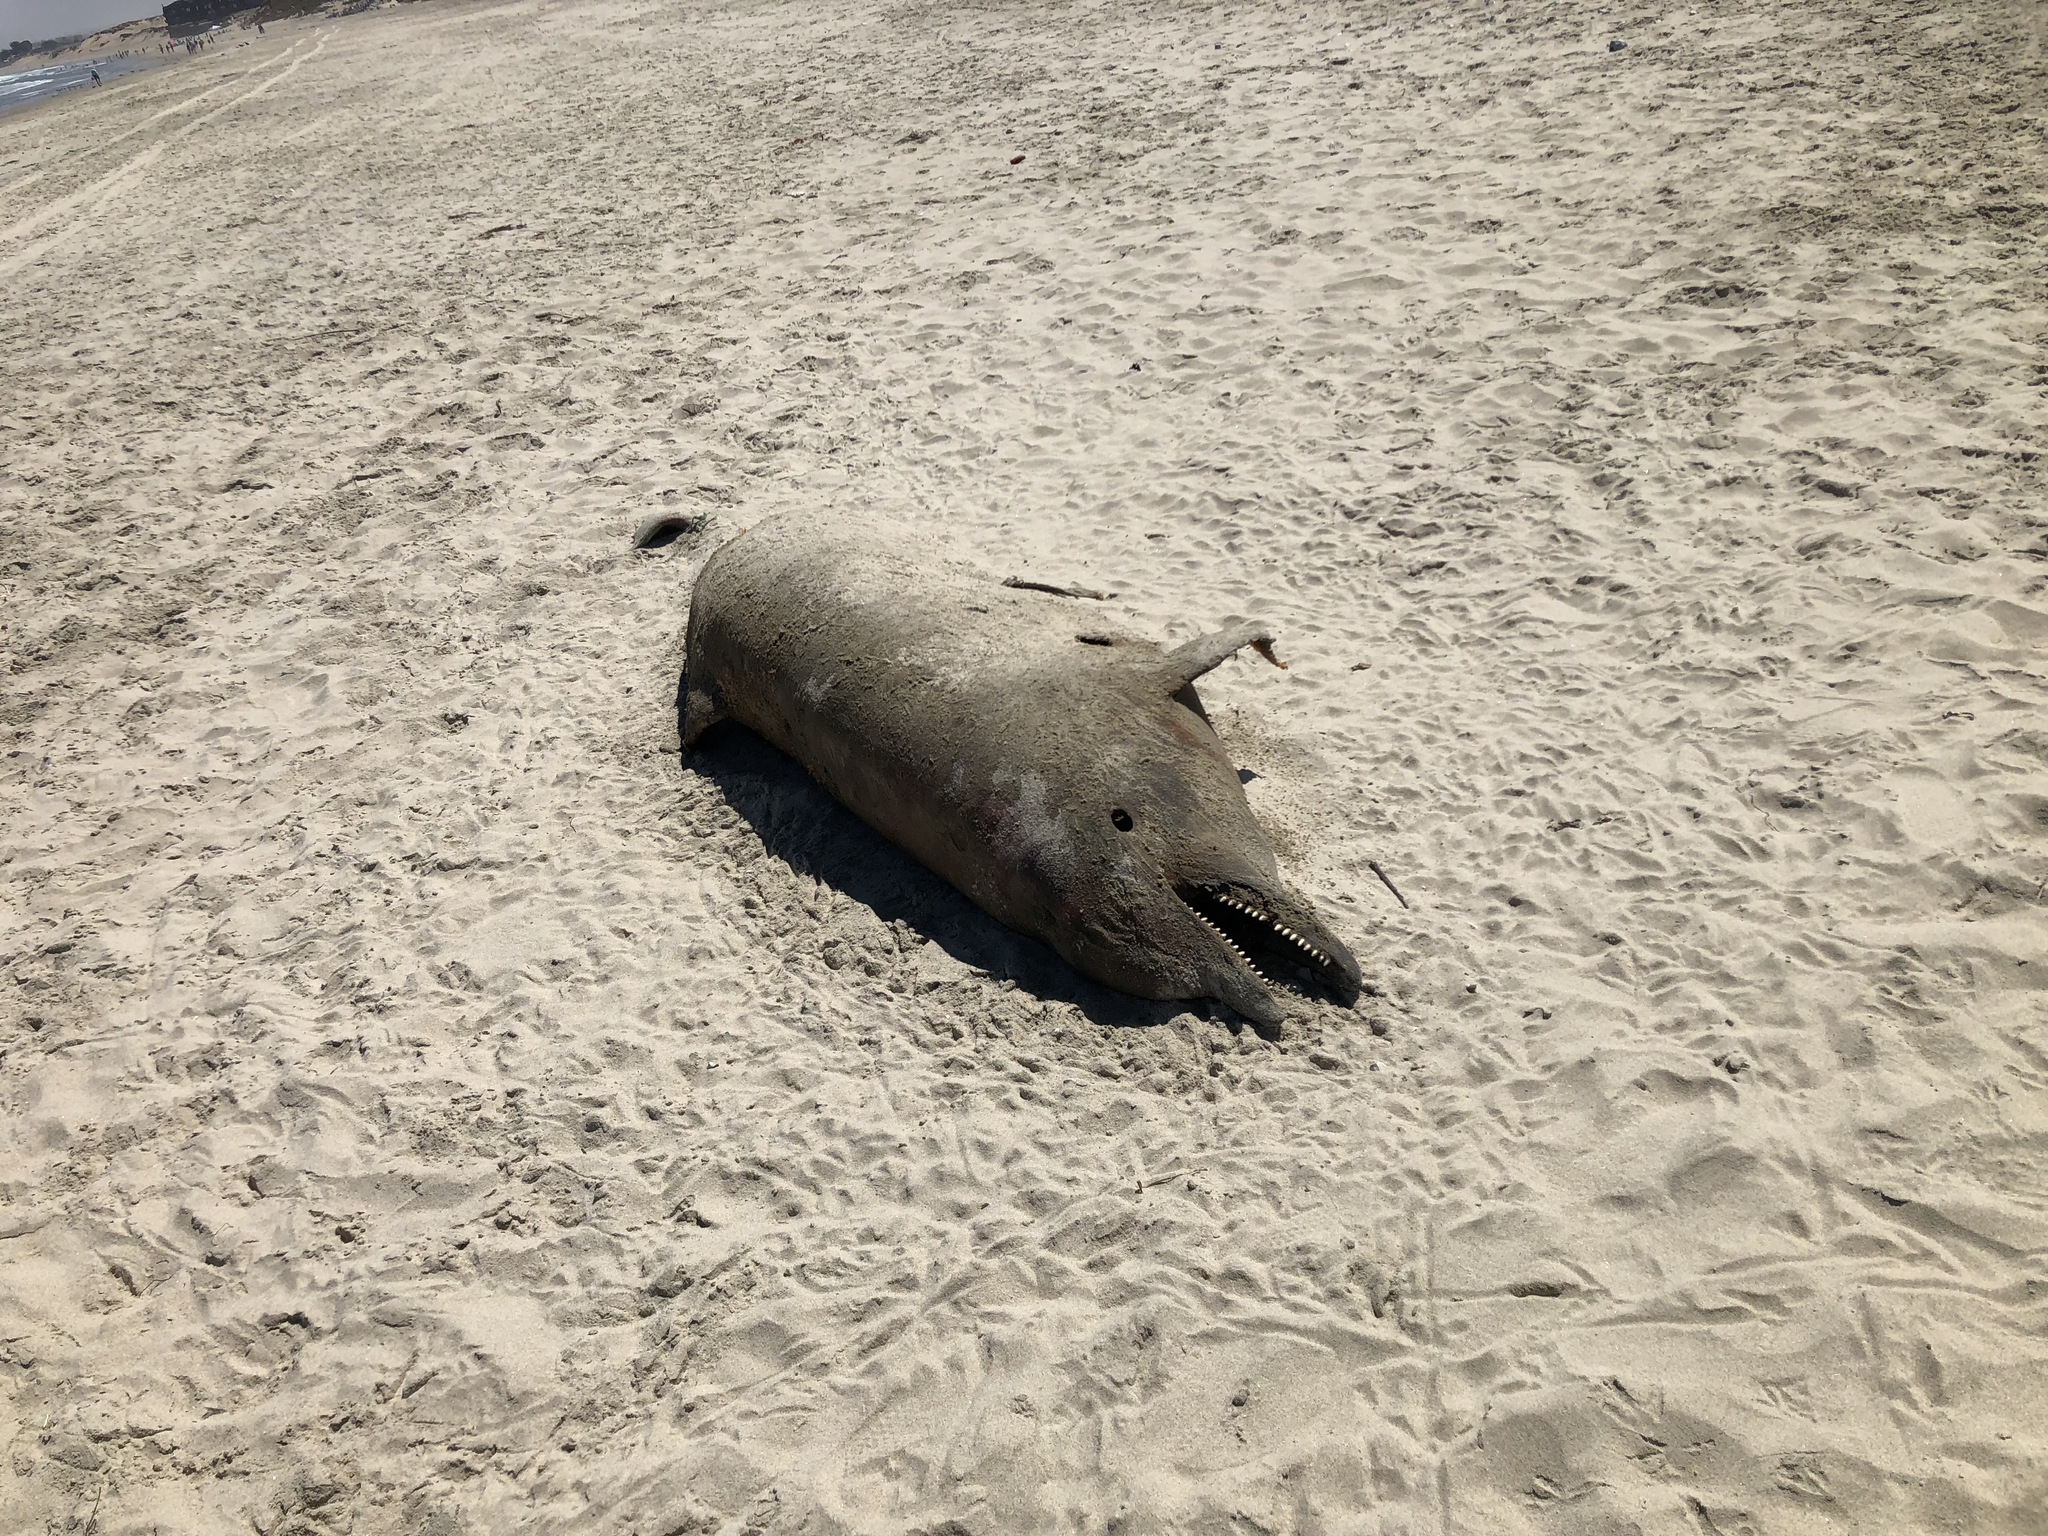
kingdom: Animalia
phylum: Chordata
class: Mammalia
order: Cetacea
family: Delphinidae
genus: Tursiops
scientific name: Tursiops truncatus
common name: Bottlenose dolphin
